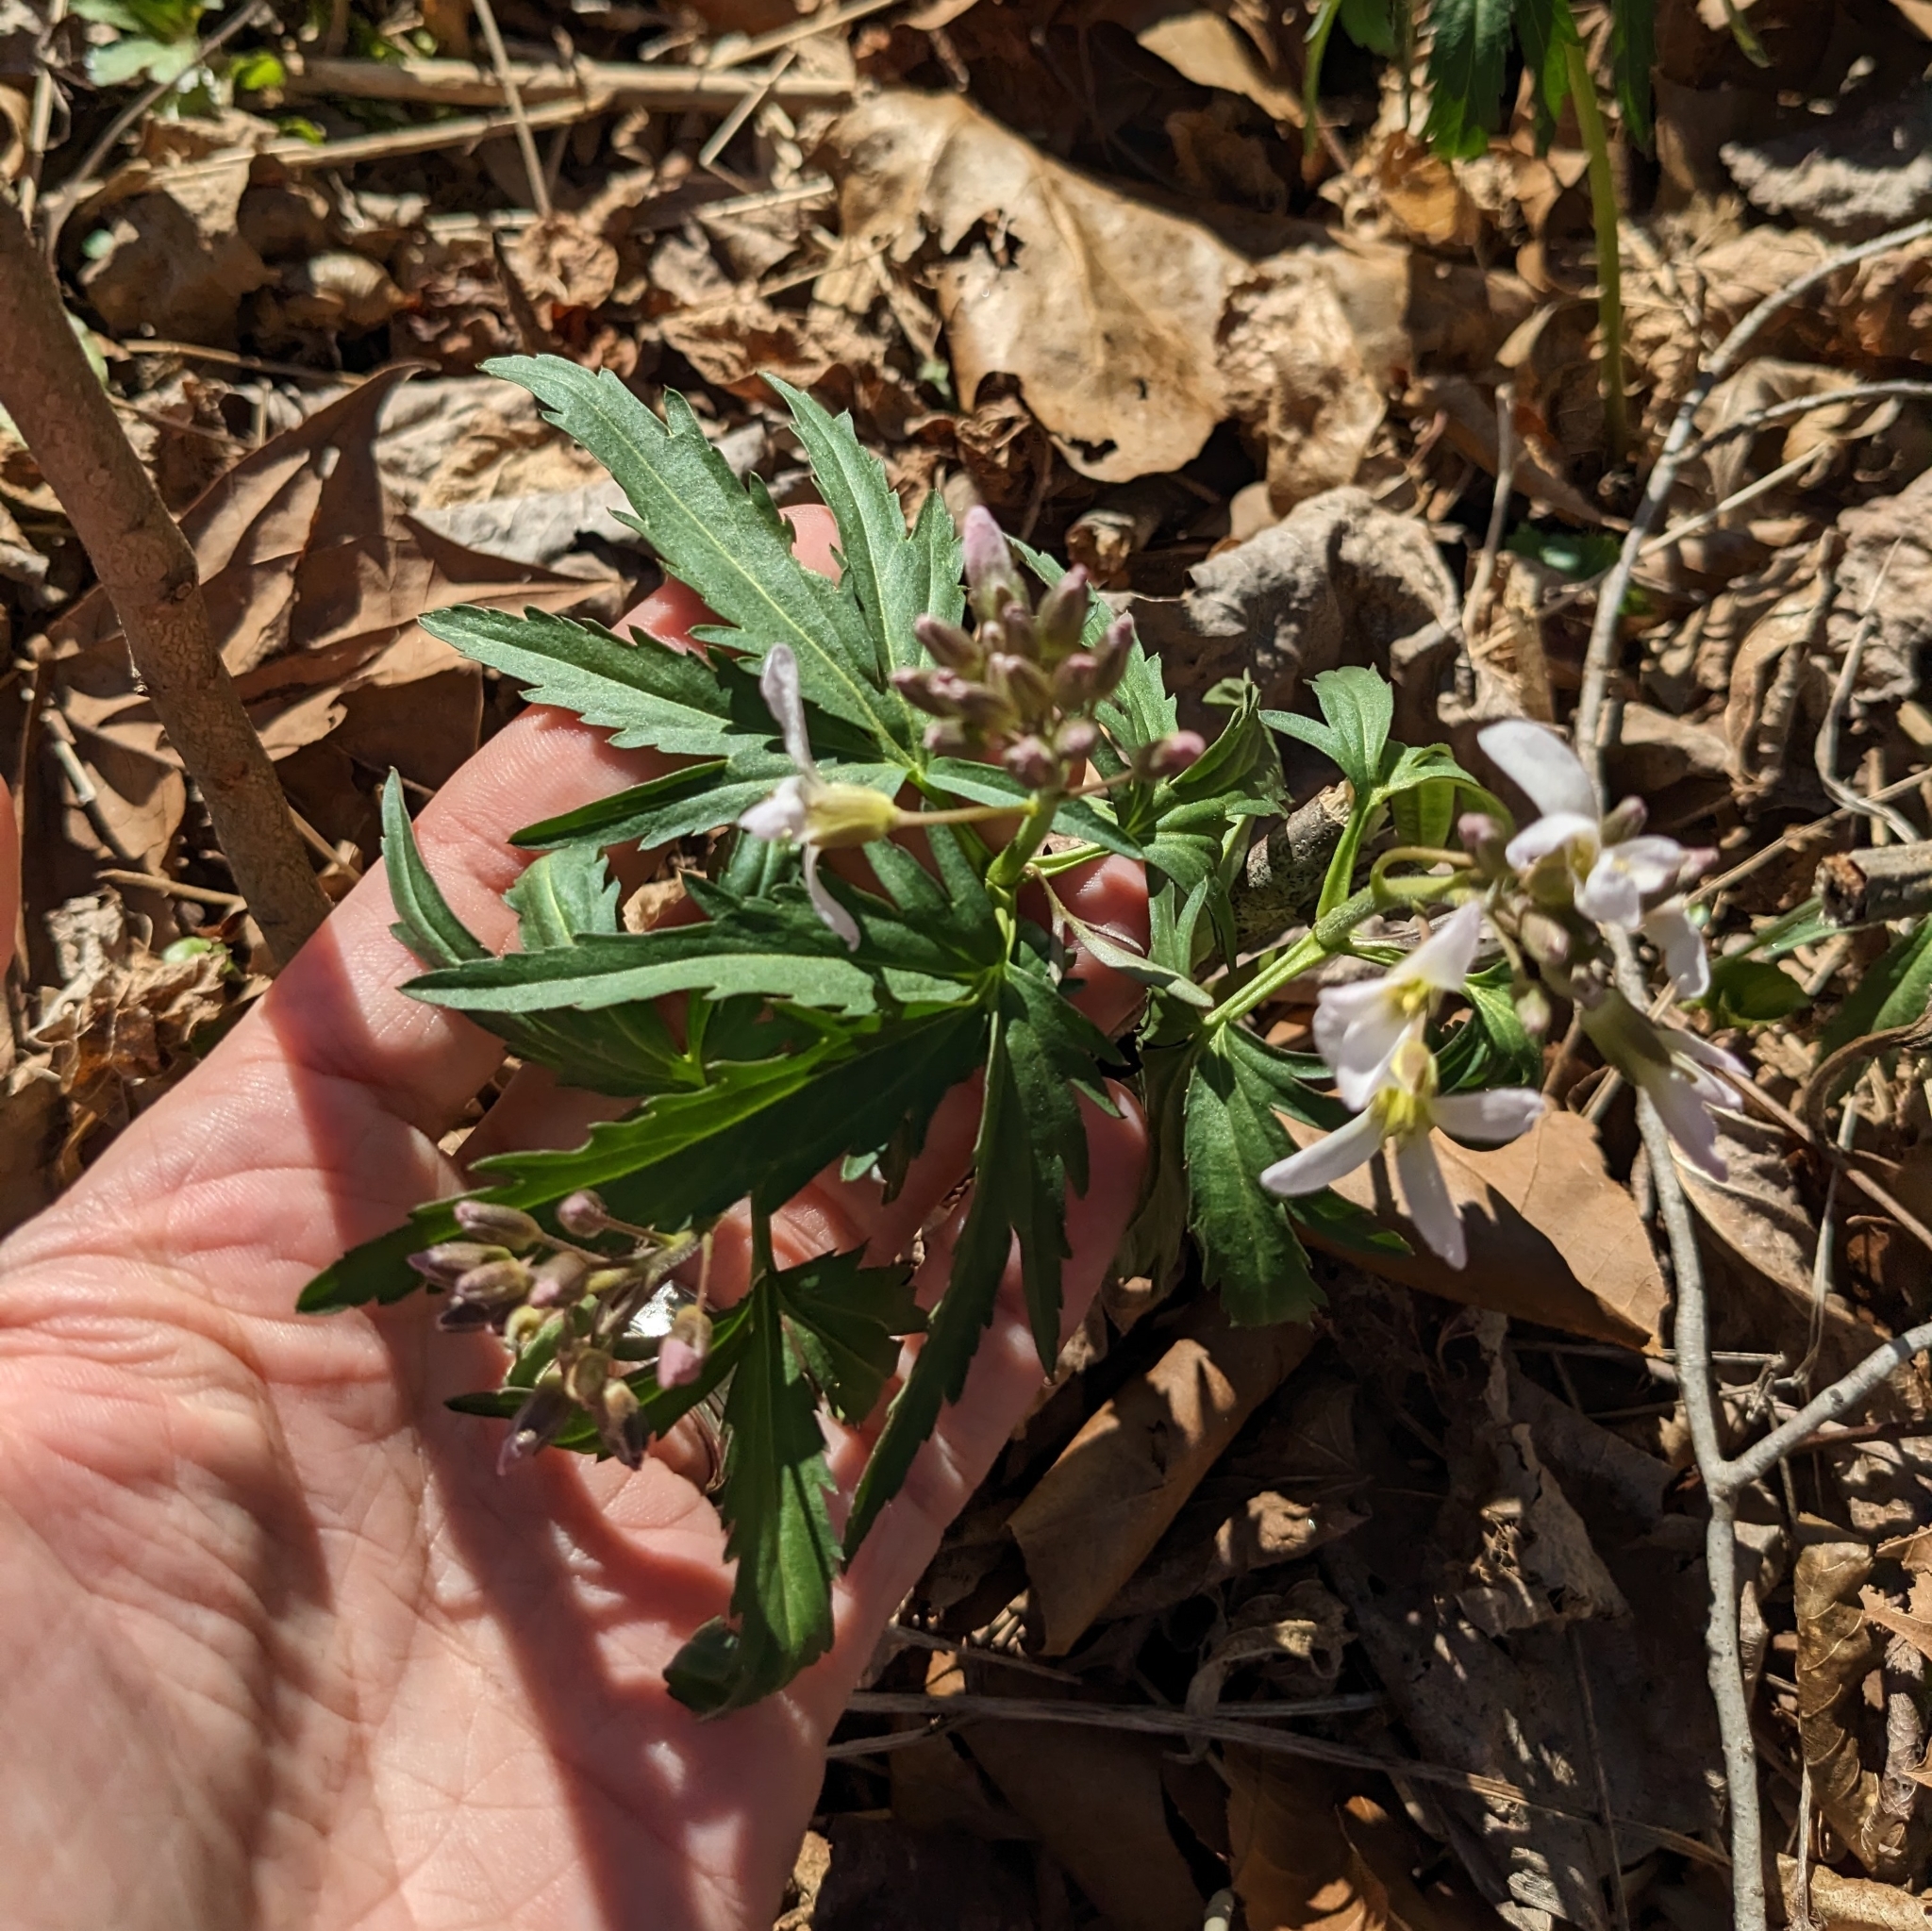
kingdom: Plantae
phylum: Tracheophyta
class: Magnoliopsida
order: Brassicales
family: Brassicaceae
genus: Cardamine
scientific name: Cardamine concatenata
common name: Cut-leaf toothcup
